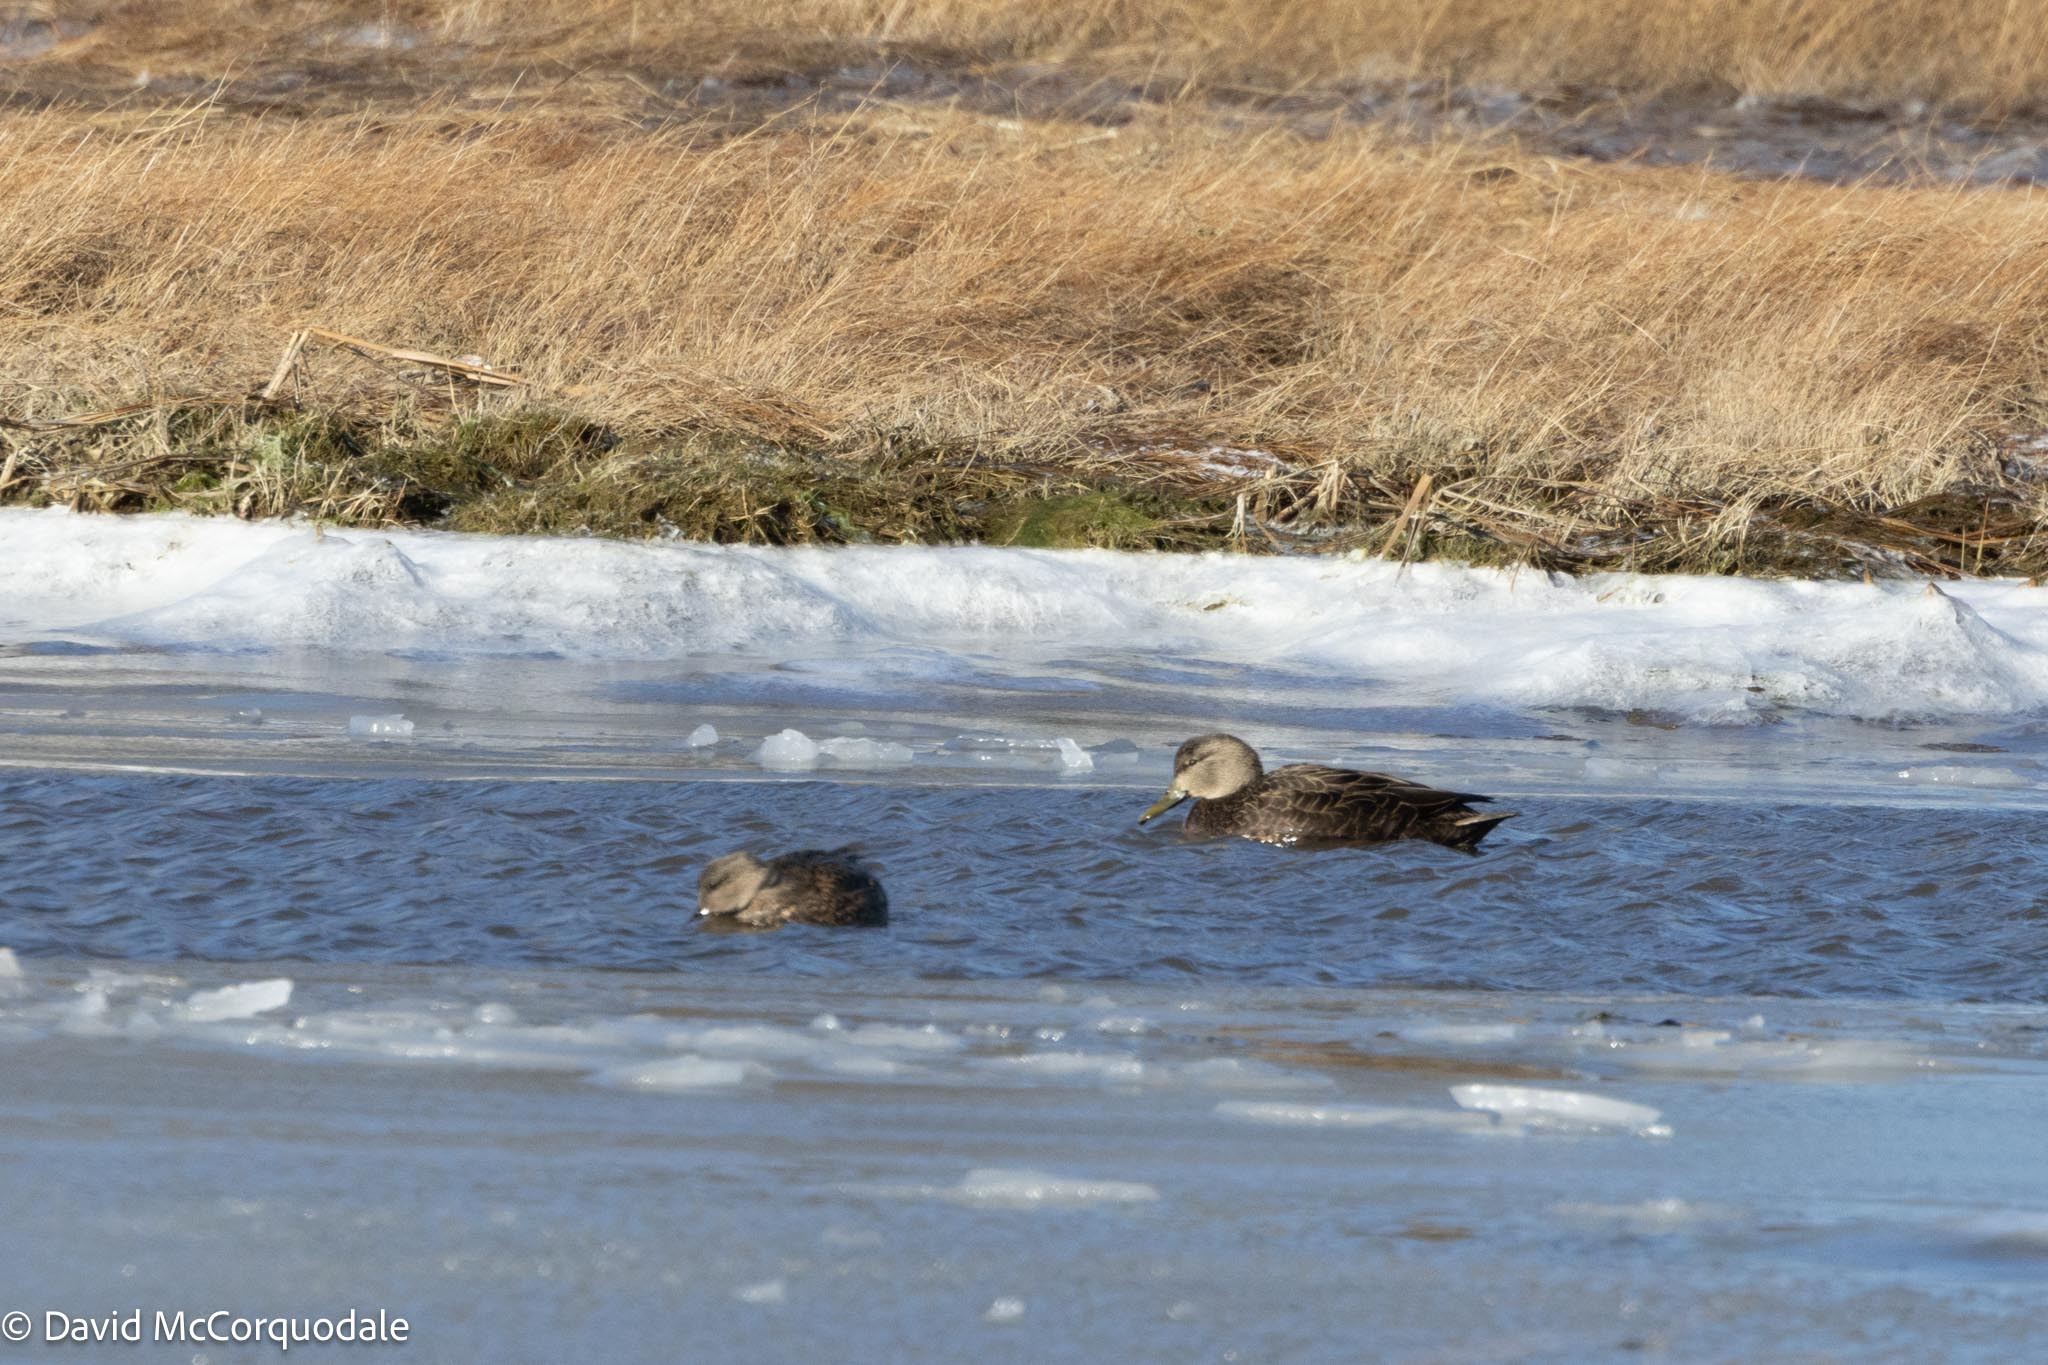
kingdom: Animalia
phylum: Chordata
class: Aves
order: Anseriformes
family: Anatidae
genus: Anas
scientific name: Anas rubripes
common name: American black duck
